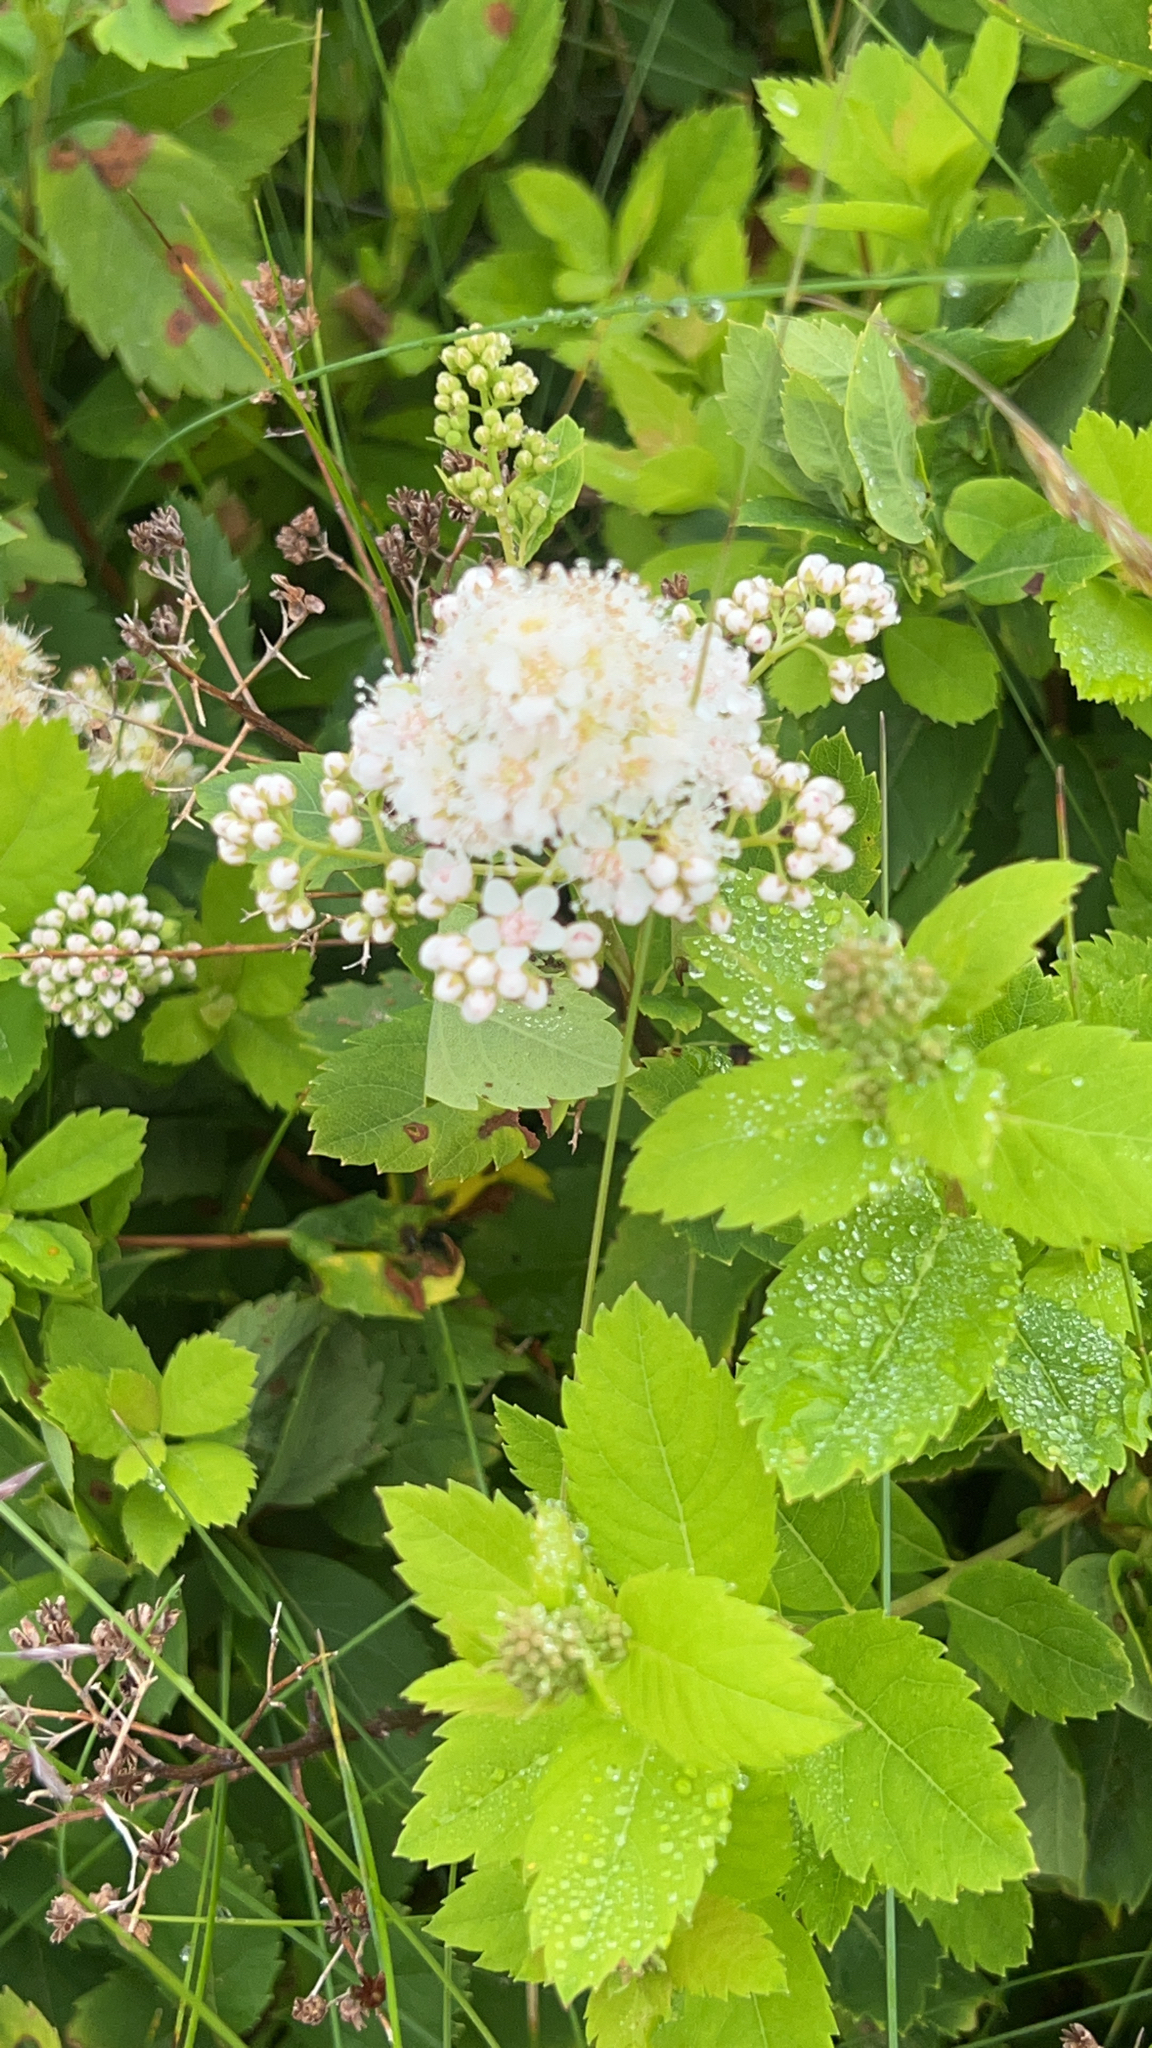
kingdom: Plantae
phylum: Tracheophyta
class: Magnoliopsida
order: Rosales
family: Rosaceae
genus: Spiraea
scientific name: Spiraea alba
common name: Pale bridewort
